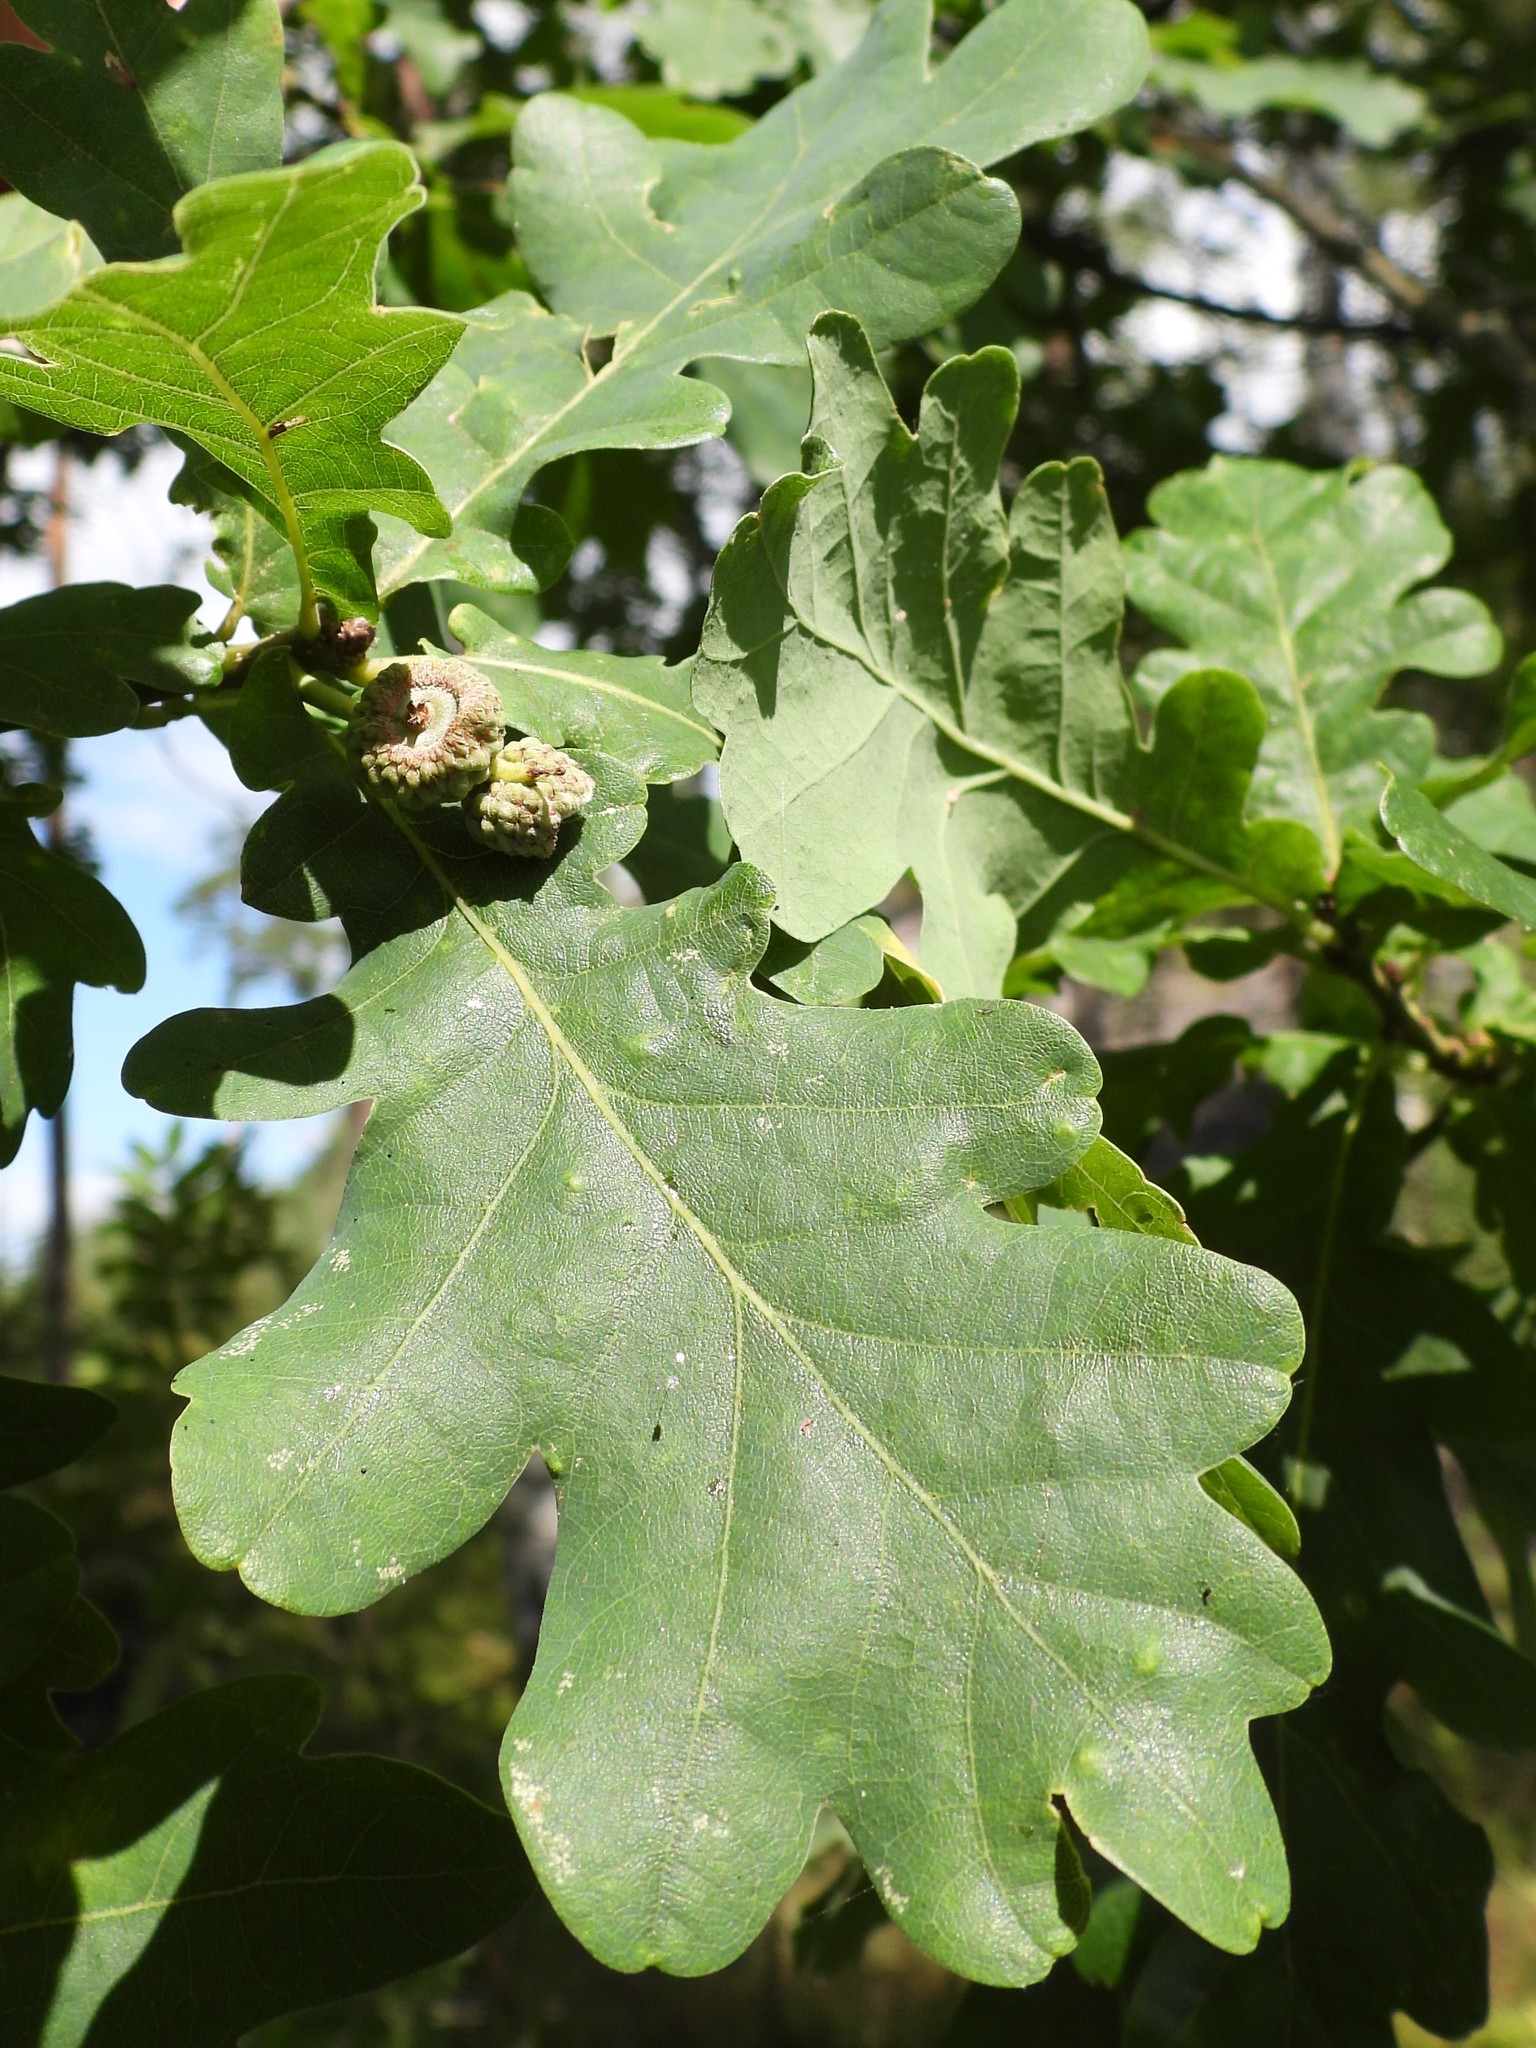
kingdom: Plantae
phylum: Tracheophyta
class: Magnoliopsida
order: Fagales
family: Fagaceae
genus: Quercus
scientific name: Quercus robur
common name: Pedunculate oak
